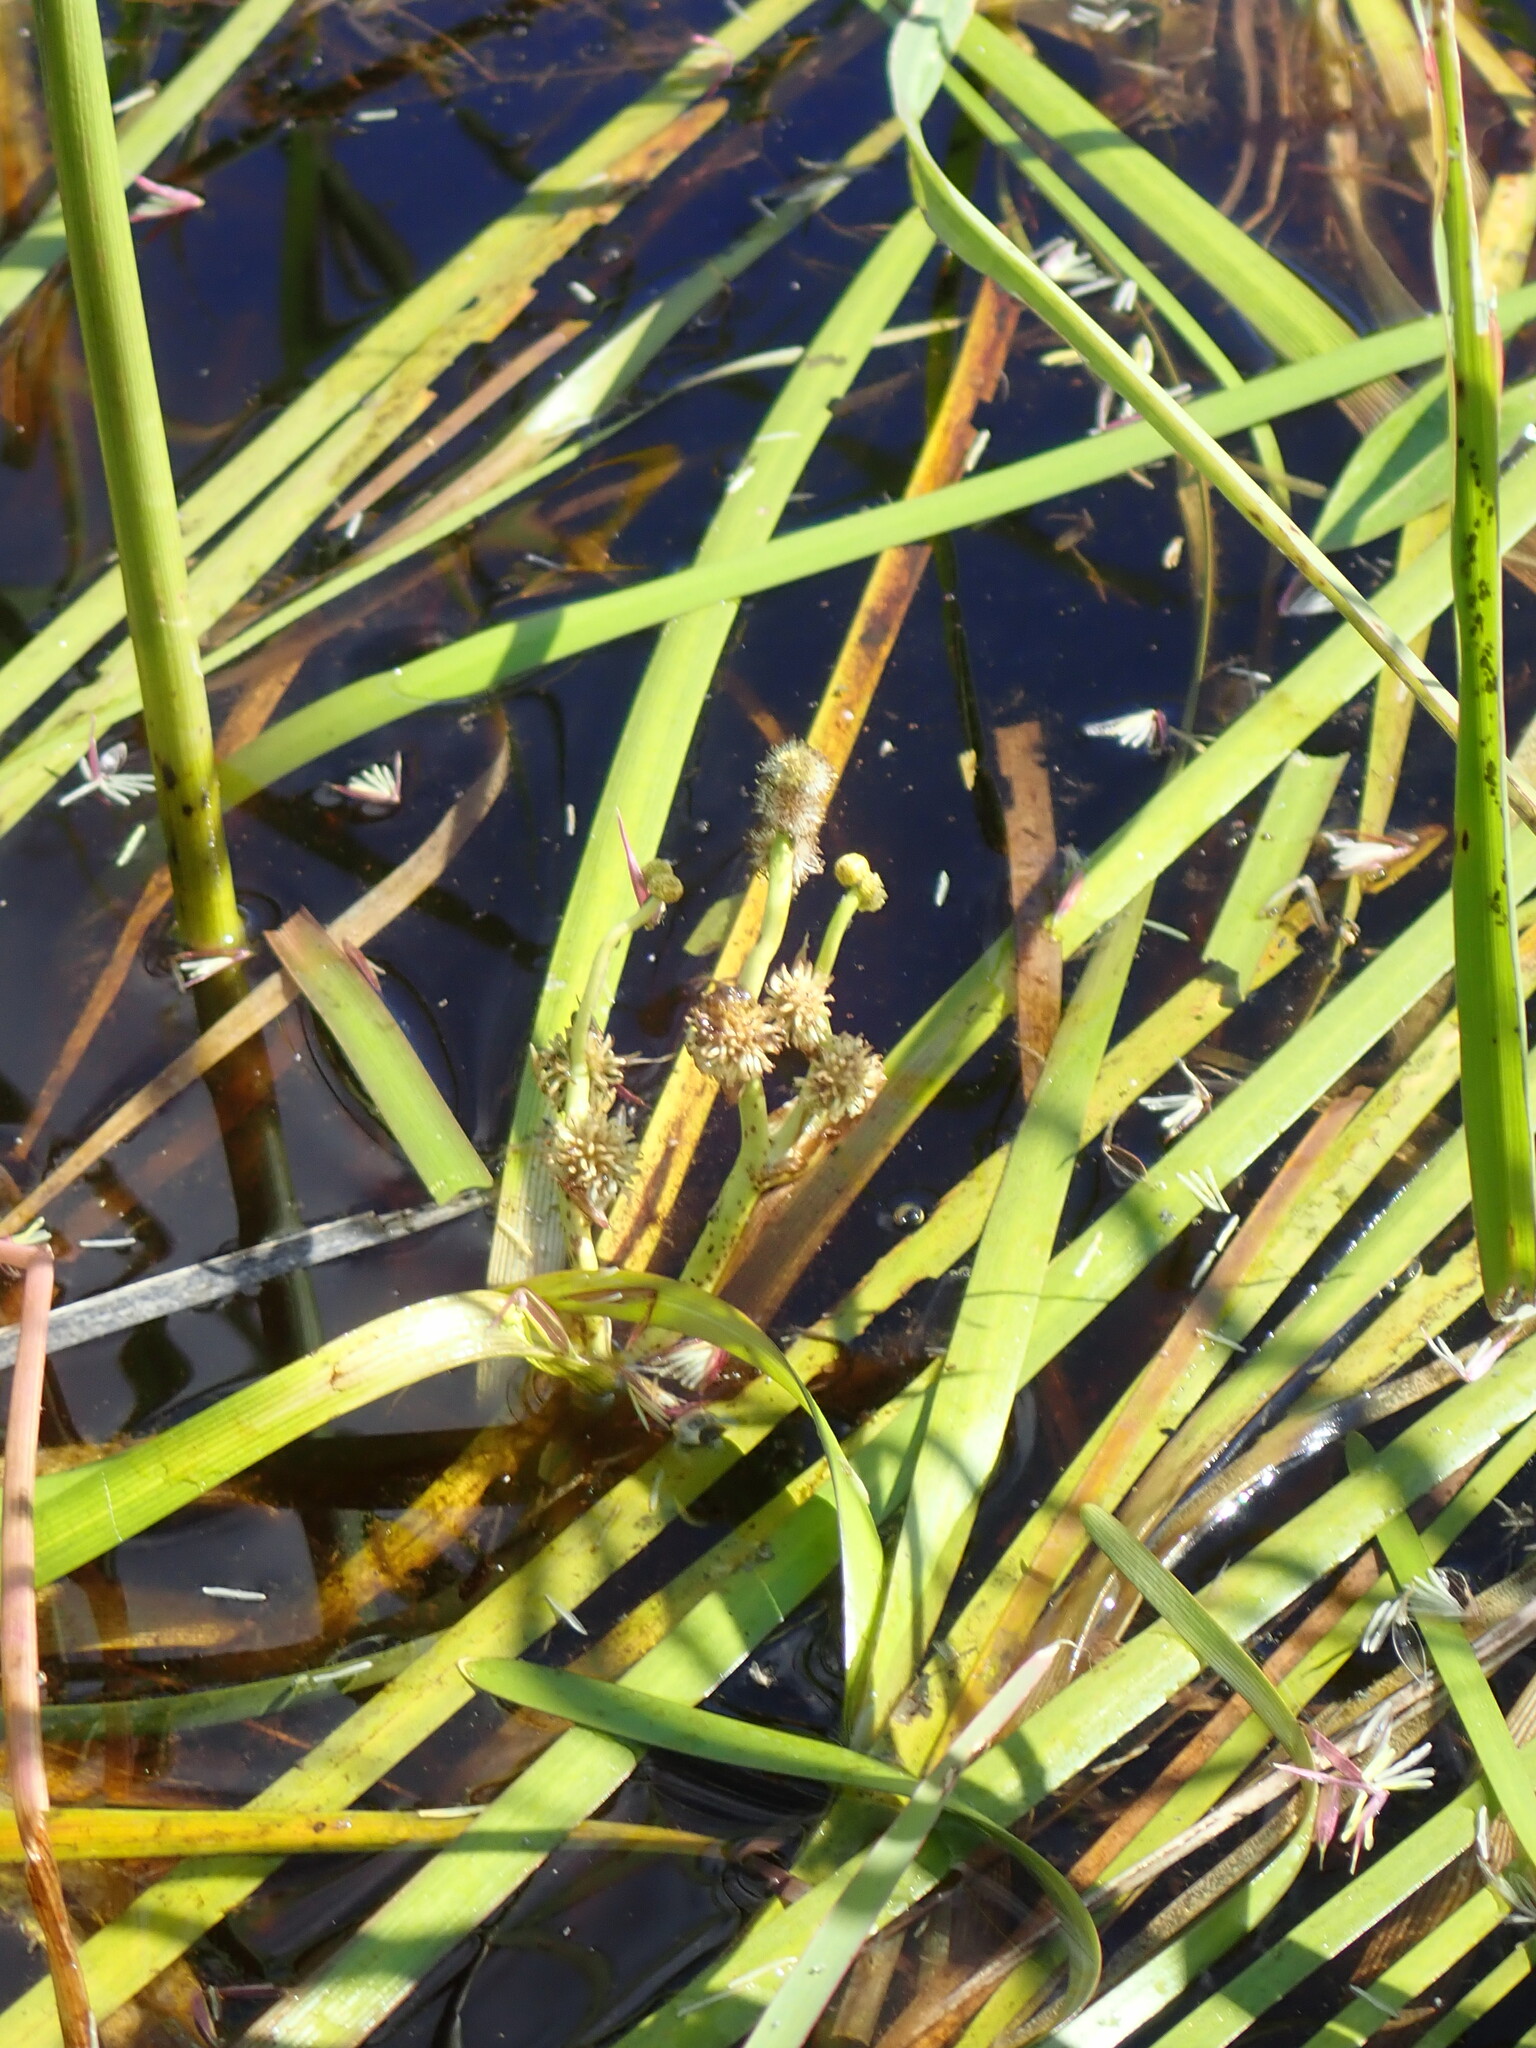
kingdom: Plantae
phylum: Tracheophyta
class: Liliopsida
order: Poales
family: Typhaceae
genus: Sparganium
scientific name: Sparganium fluctuans
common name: Floating burreed
